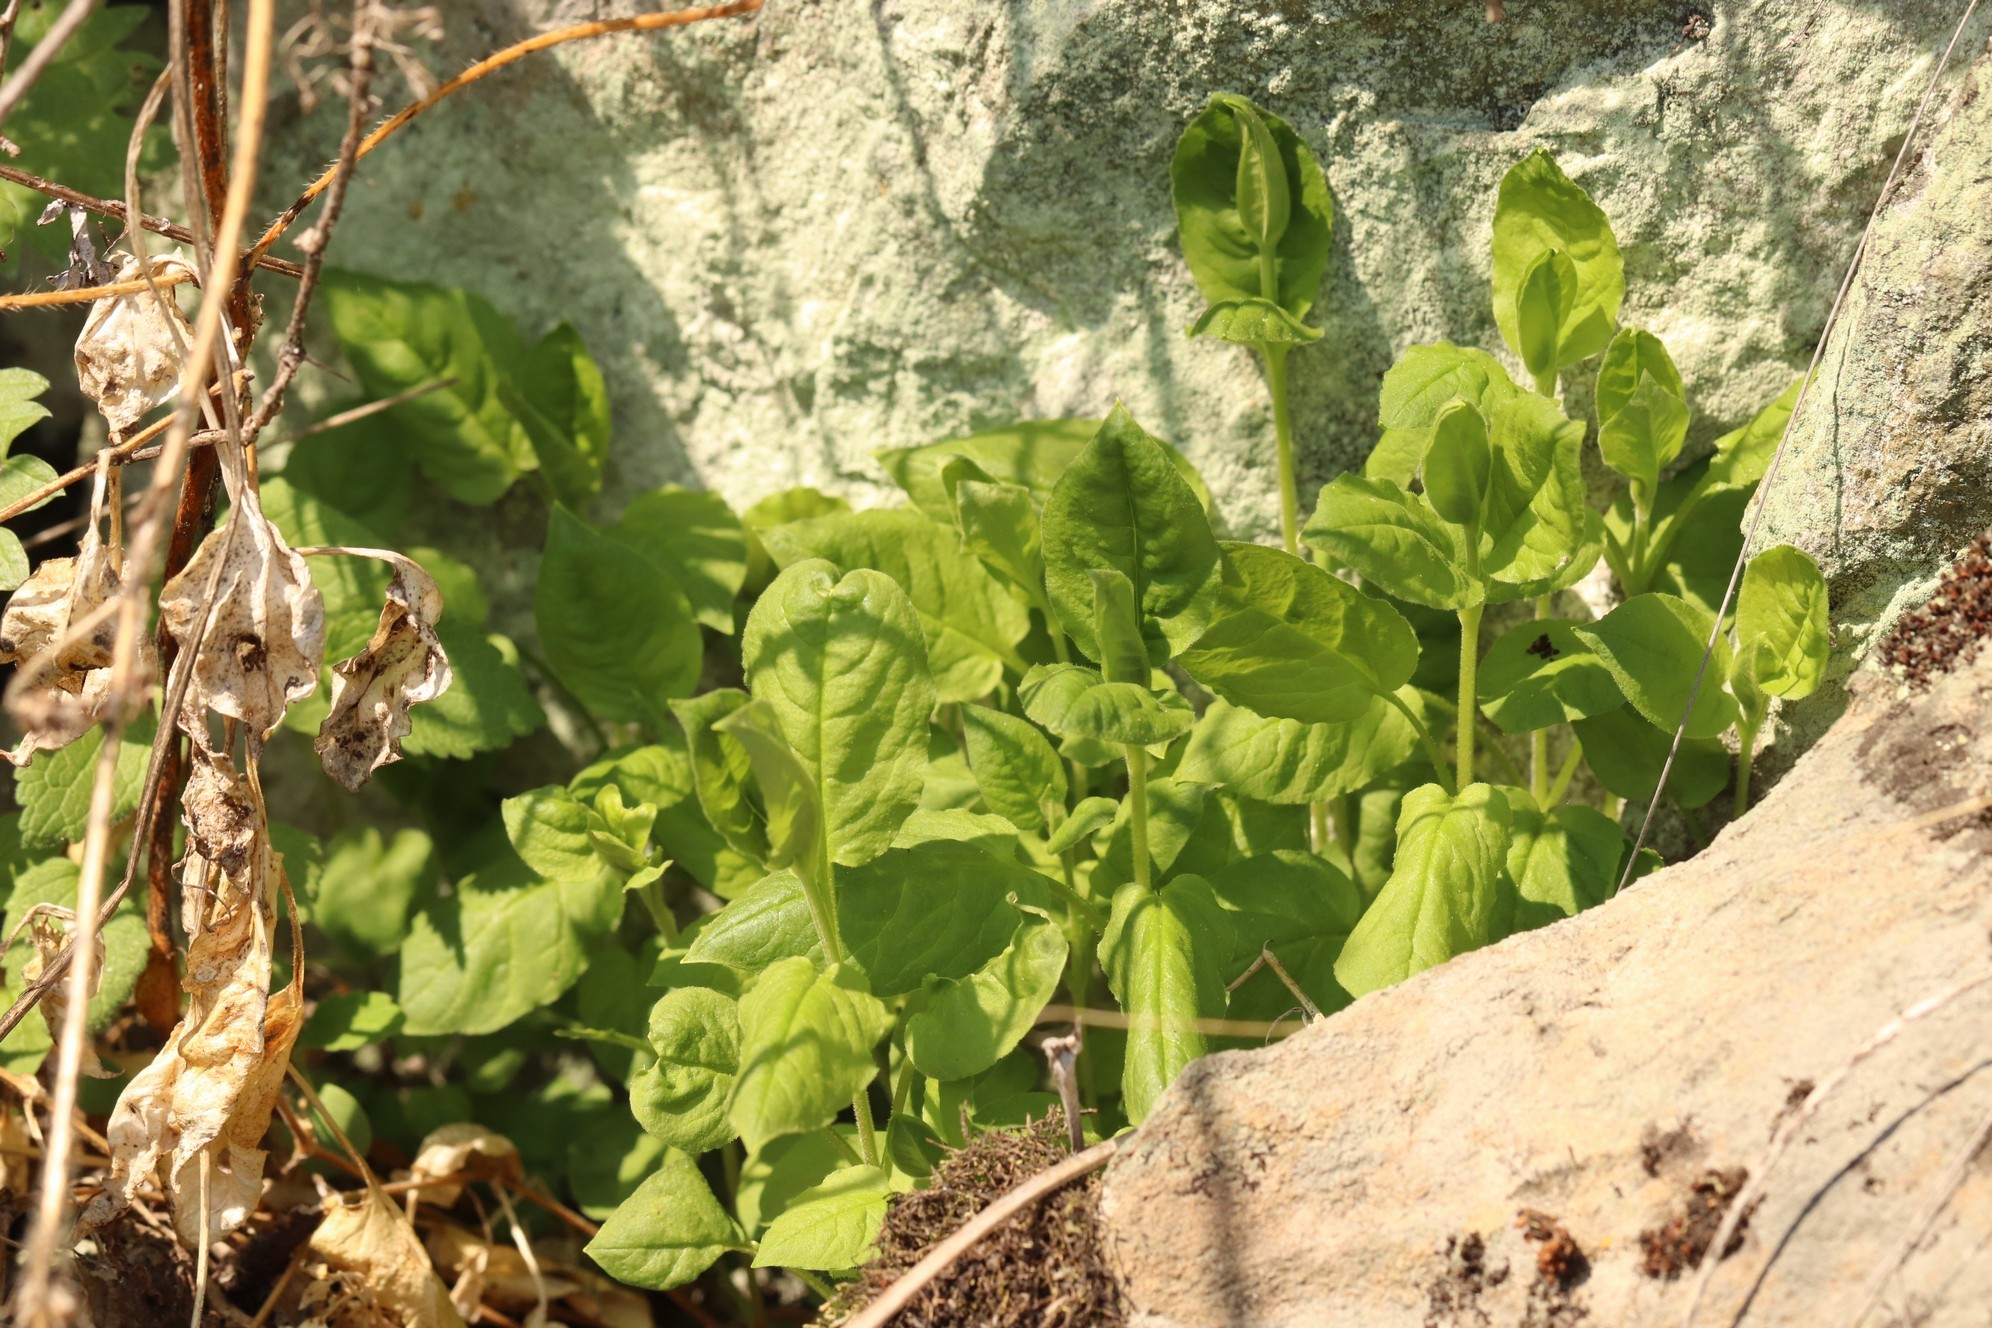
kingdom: Plantae
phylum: Tracheophyta
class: Magnoliopsida
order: Caryophyllales
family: Caryophyllaceae
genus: Stellaria
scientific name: Stellaria bungeana
